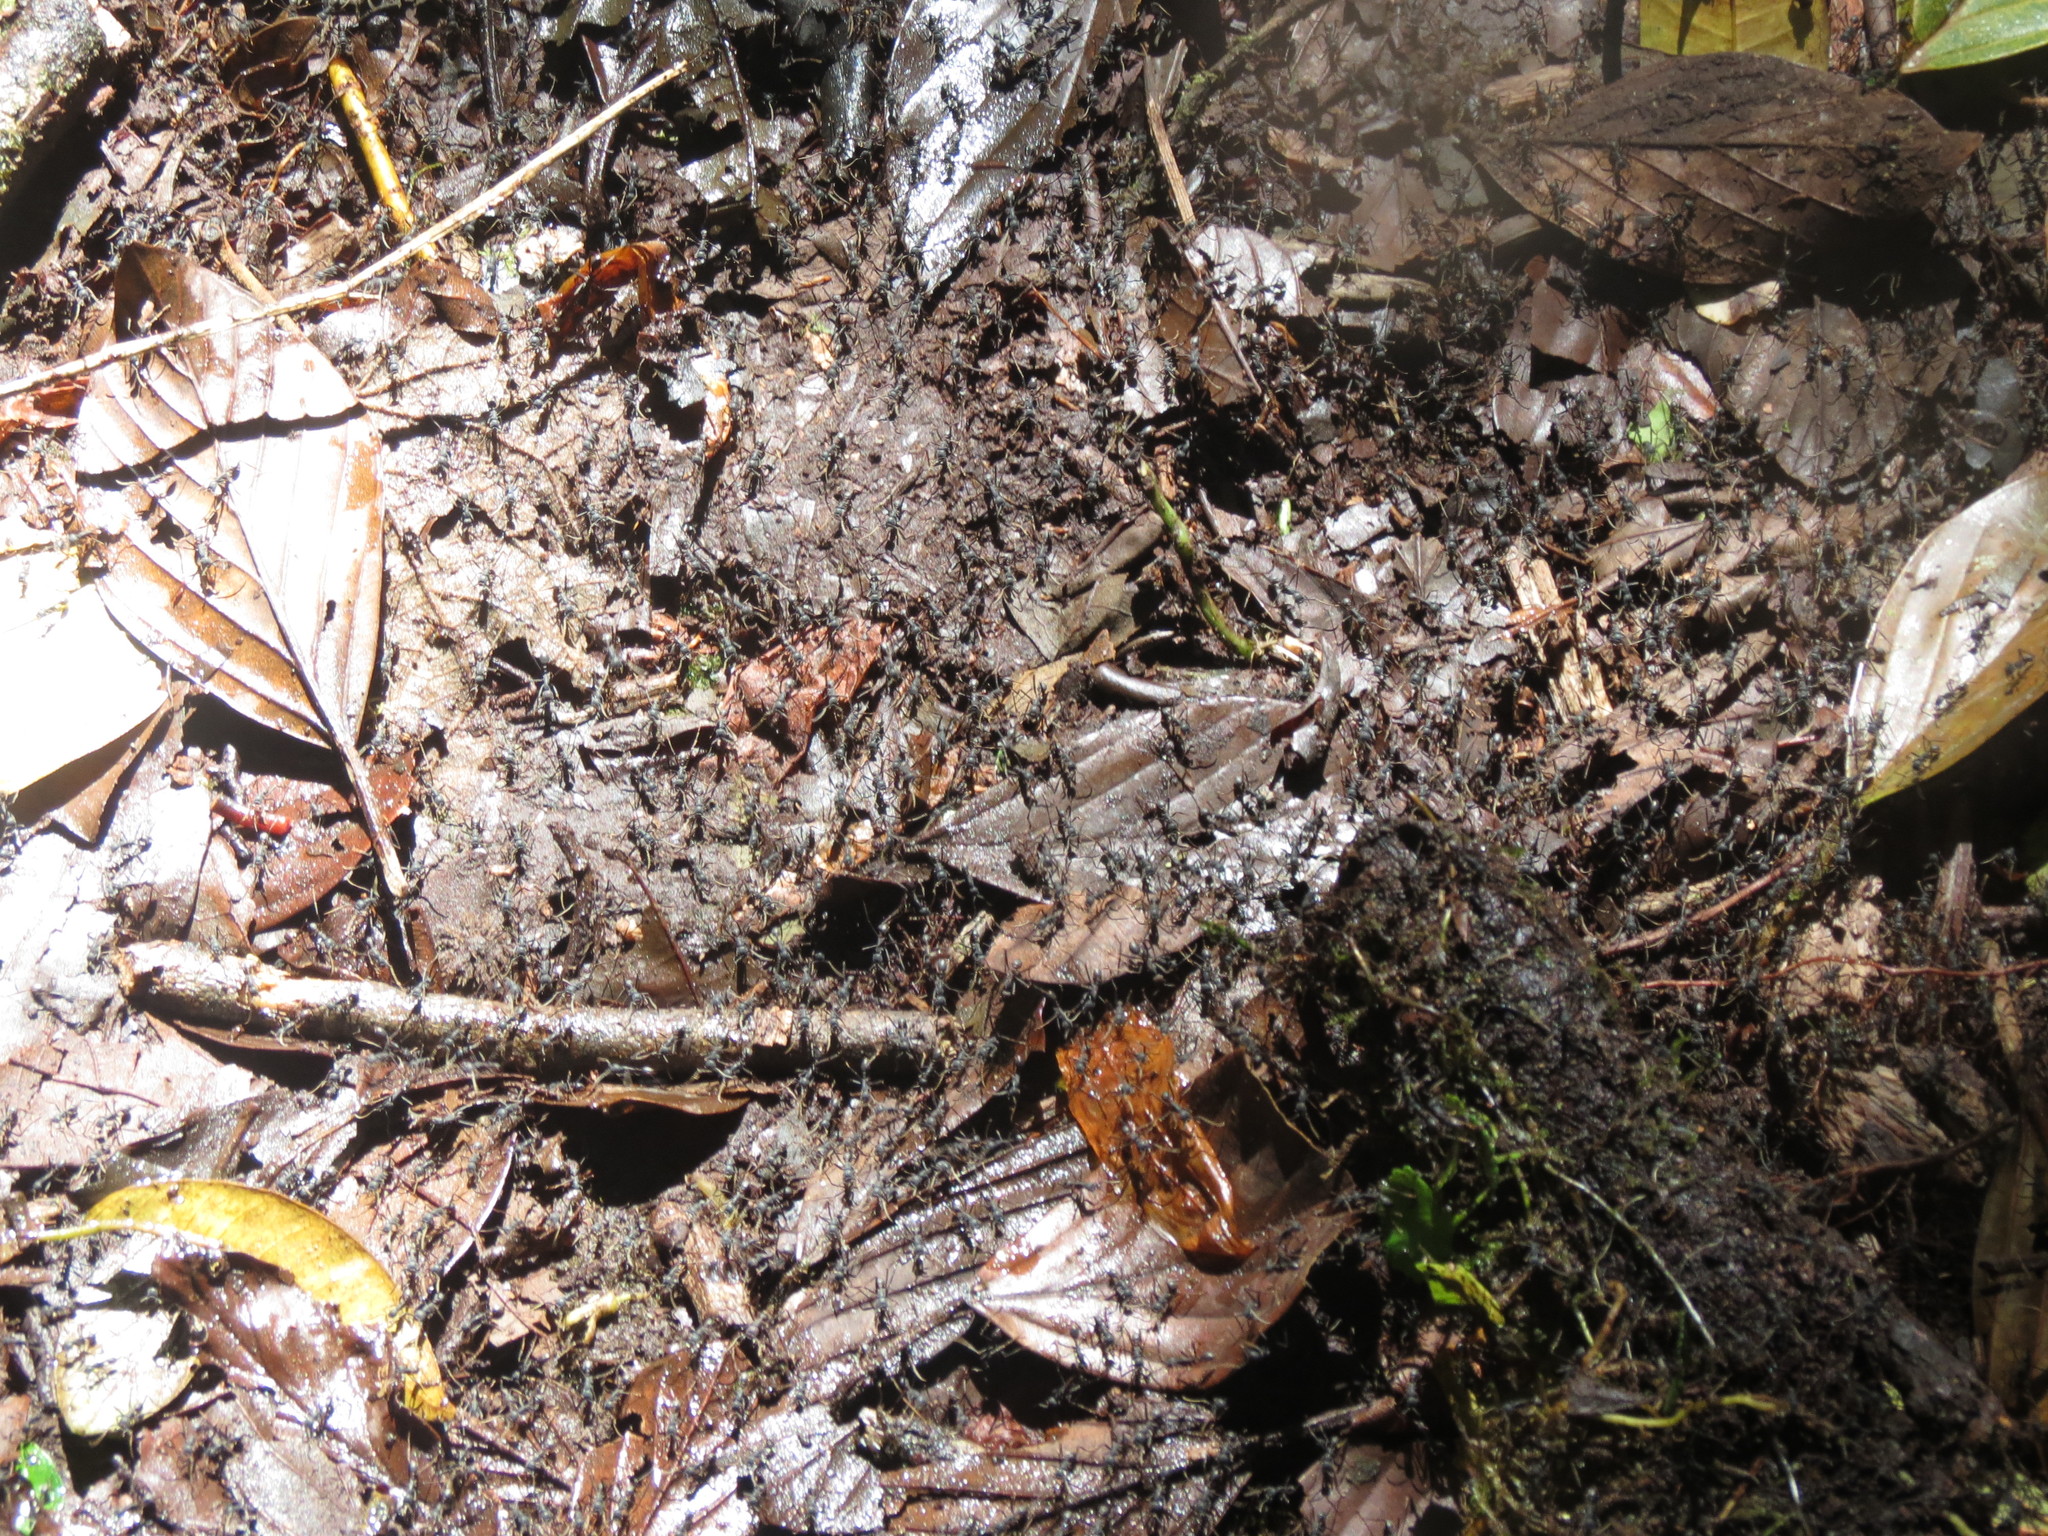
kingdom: Animalia
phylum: Arthropoda
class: Insecta
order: Hymenoptera
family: Formicidae
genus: Eciton
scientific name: Eciton burchellii
